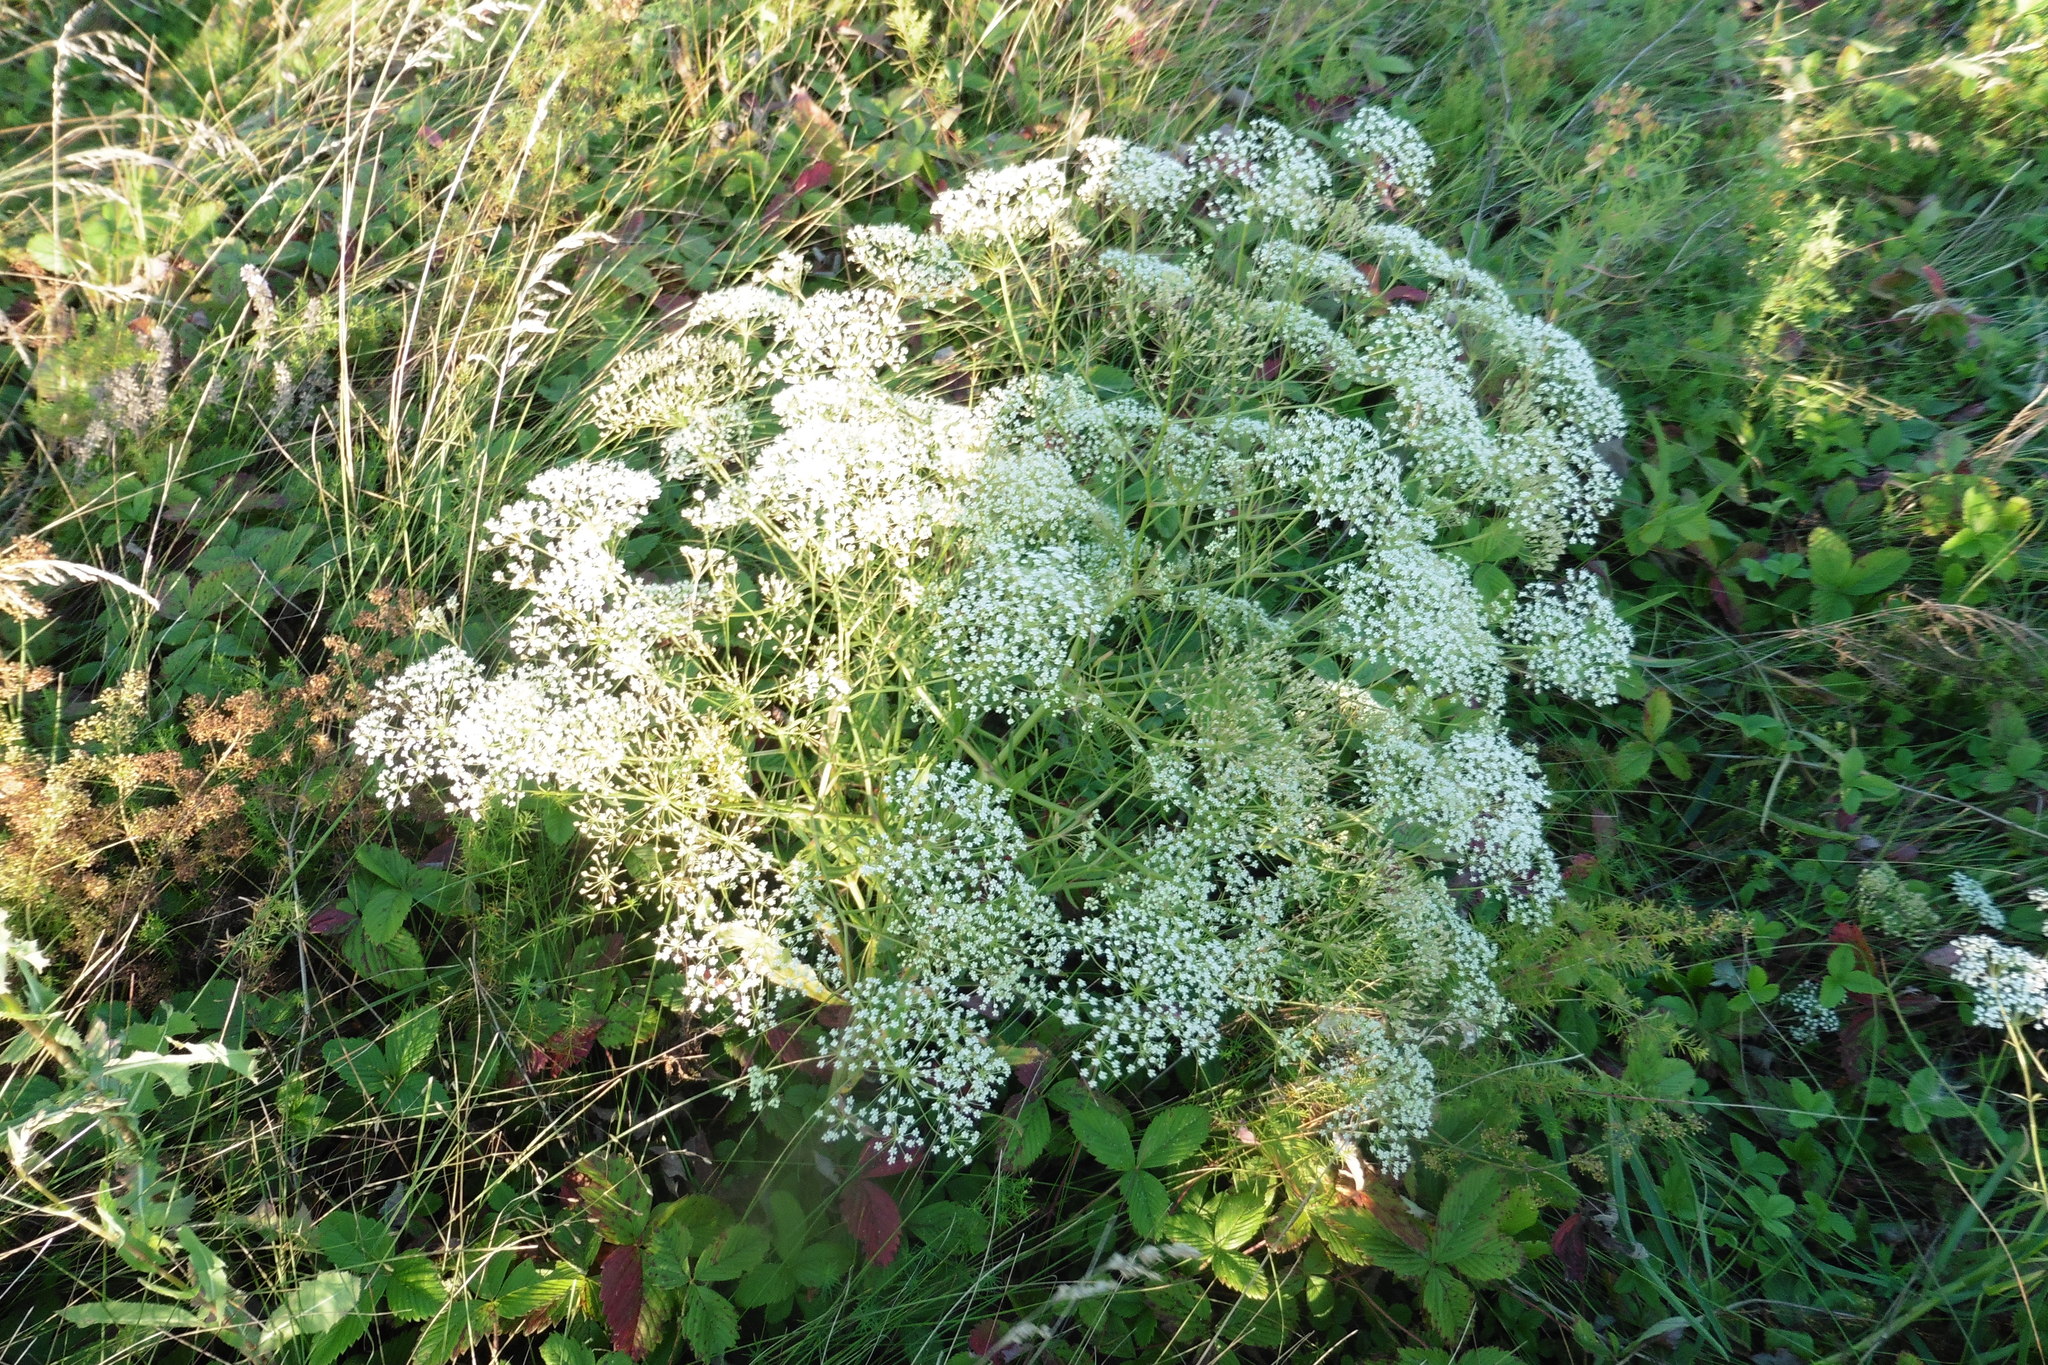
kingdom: Plantae
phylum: Tracheophyta
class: Magnoliopsida
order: Apiales
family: Apiaceae
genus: Falcaria
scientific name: Falcaria vulgaris
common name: Longleaf
